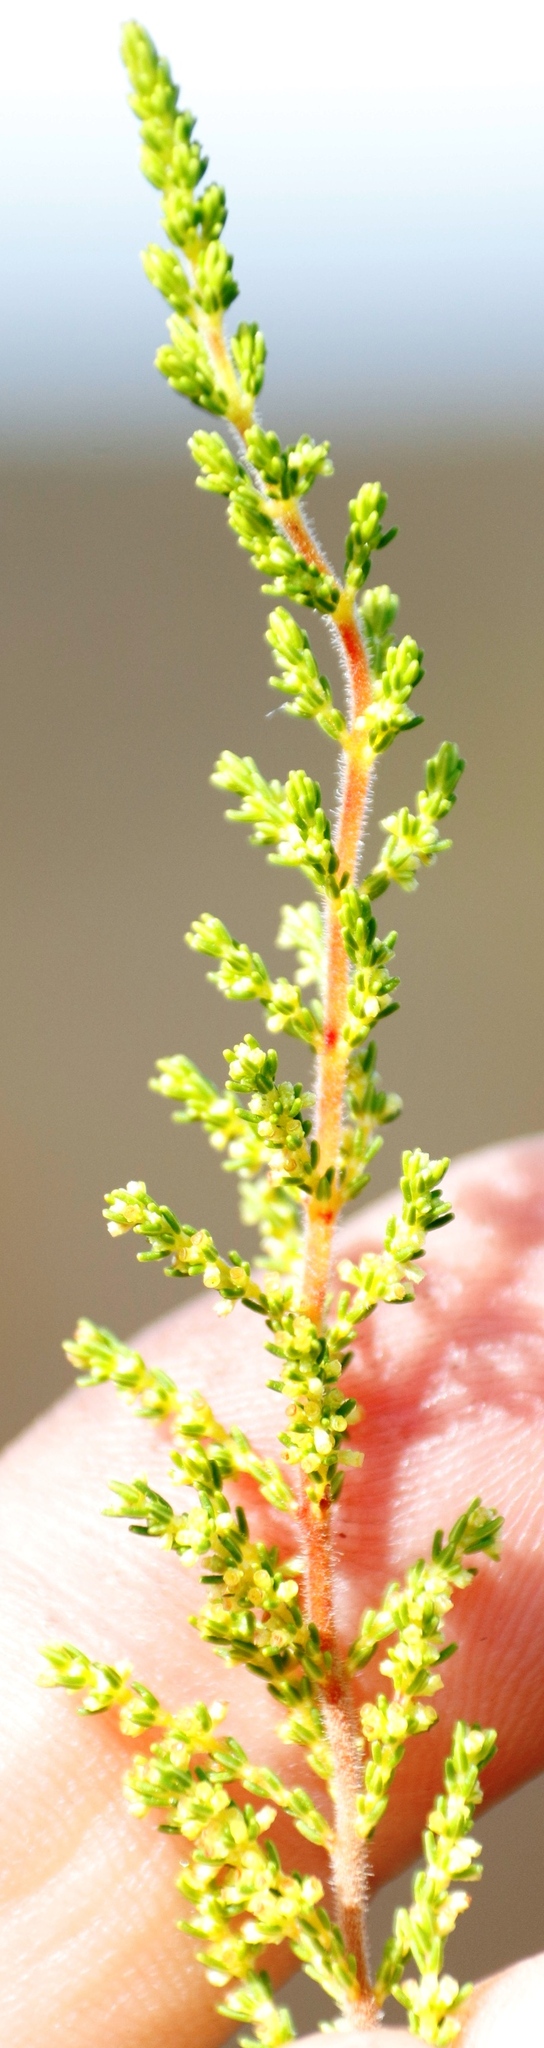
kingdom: Plantae
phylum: Tracheophyta
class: Magnoliopsida
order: Ericales
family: Ericaceae
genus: Erica
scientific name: Erica muscosa
